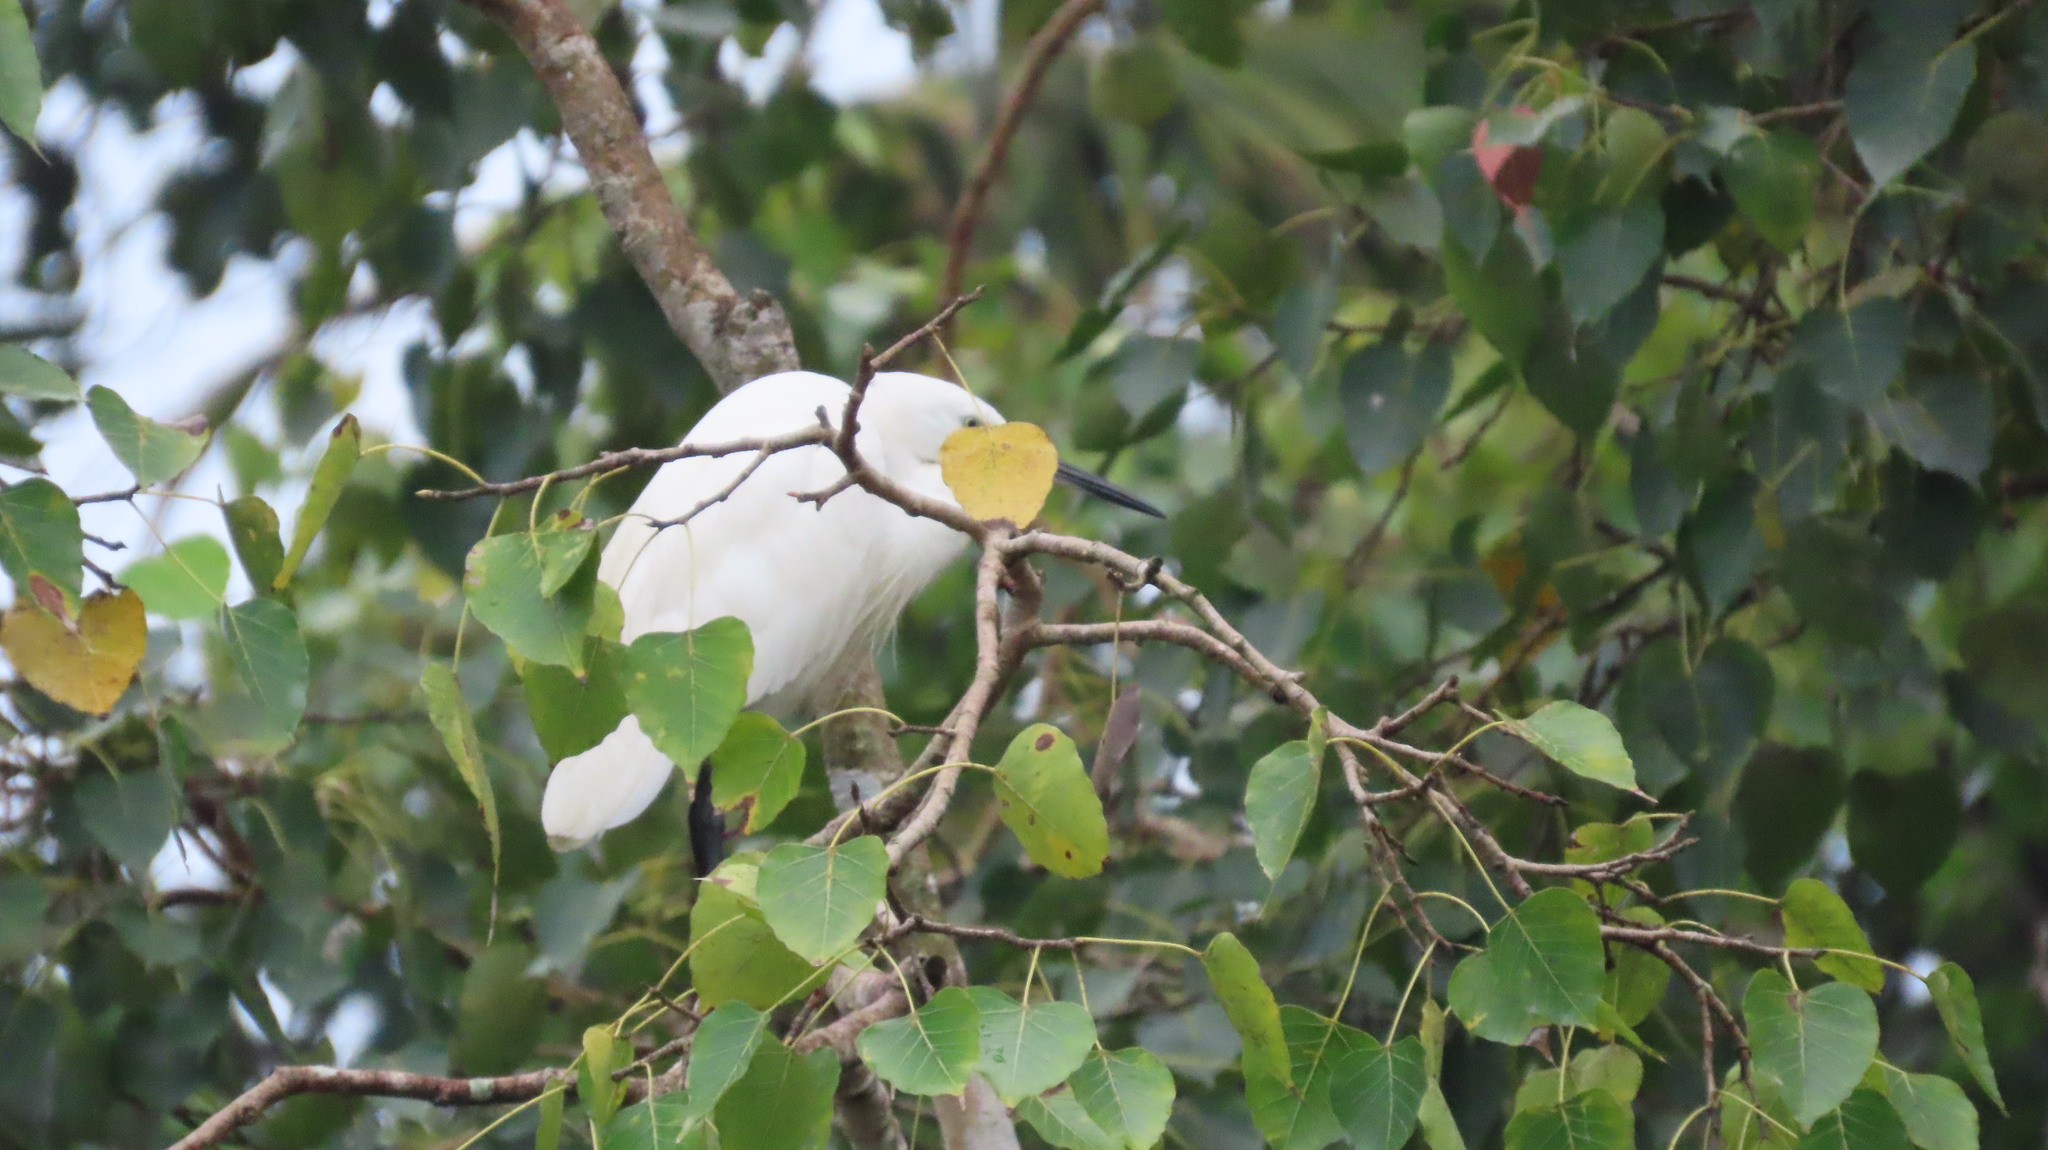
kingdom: Animalia
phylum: Chordata
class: Aves
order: Pelecaniformes
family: Ardeidae
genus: Egretta
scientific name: Egretta garzetta
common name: Little egret
